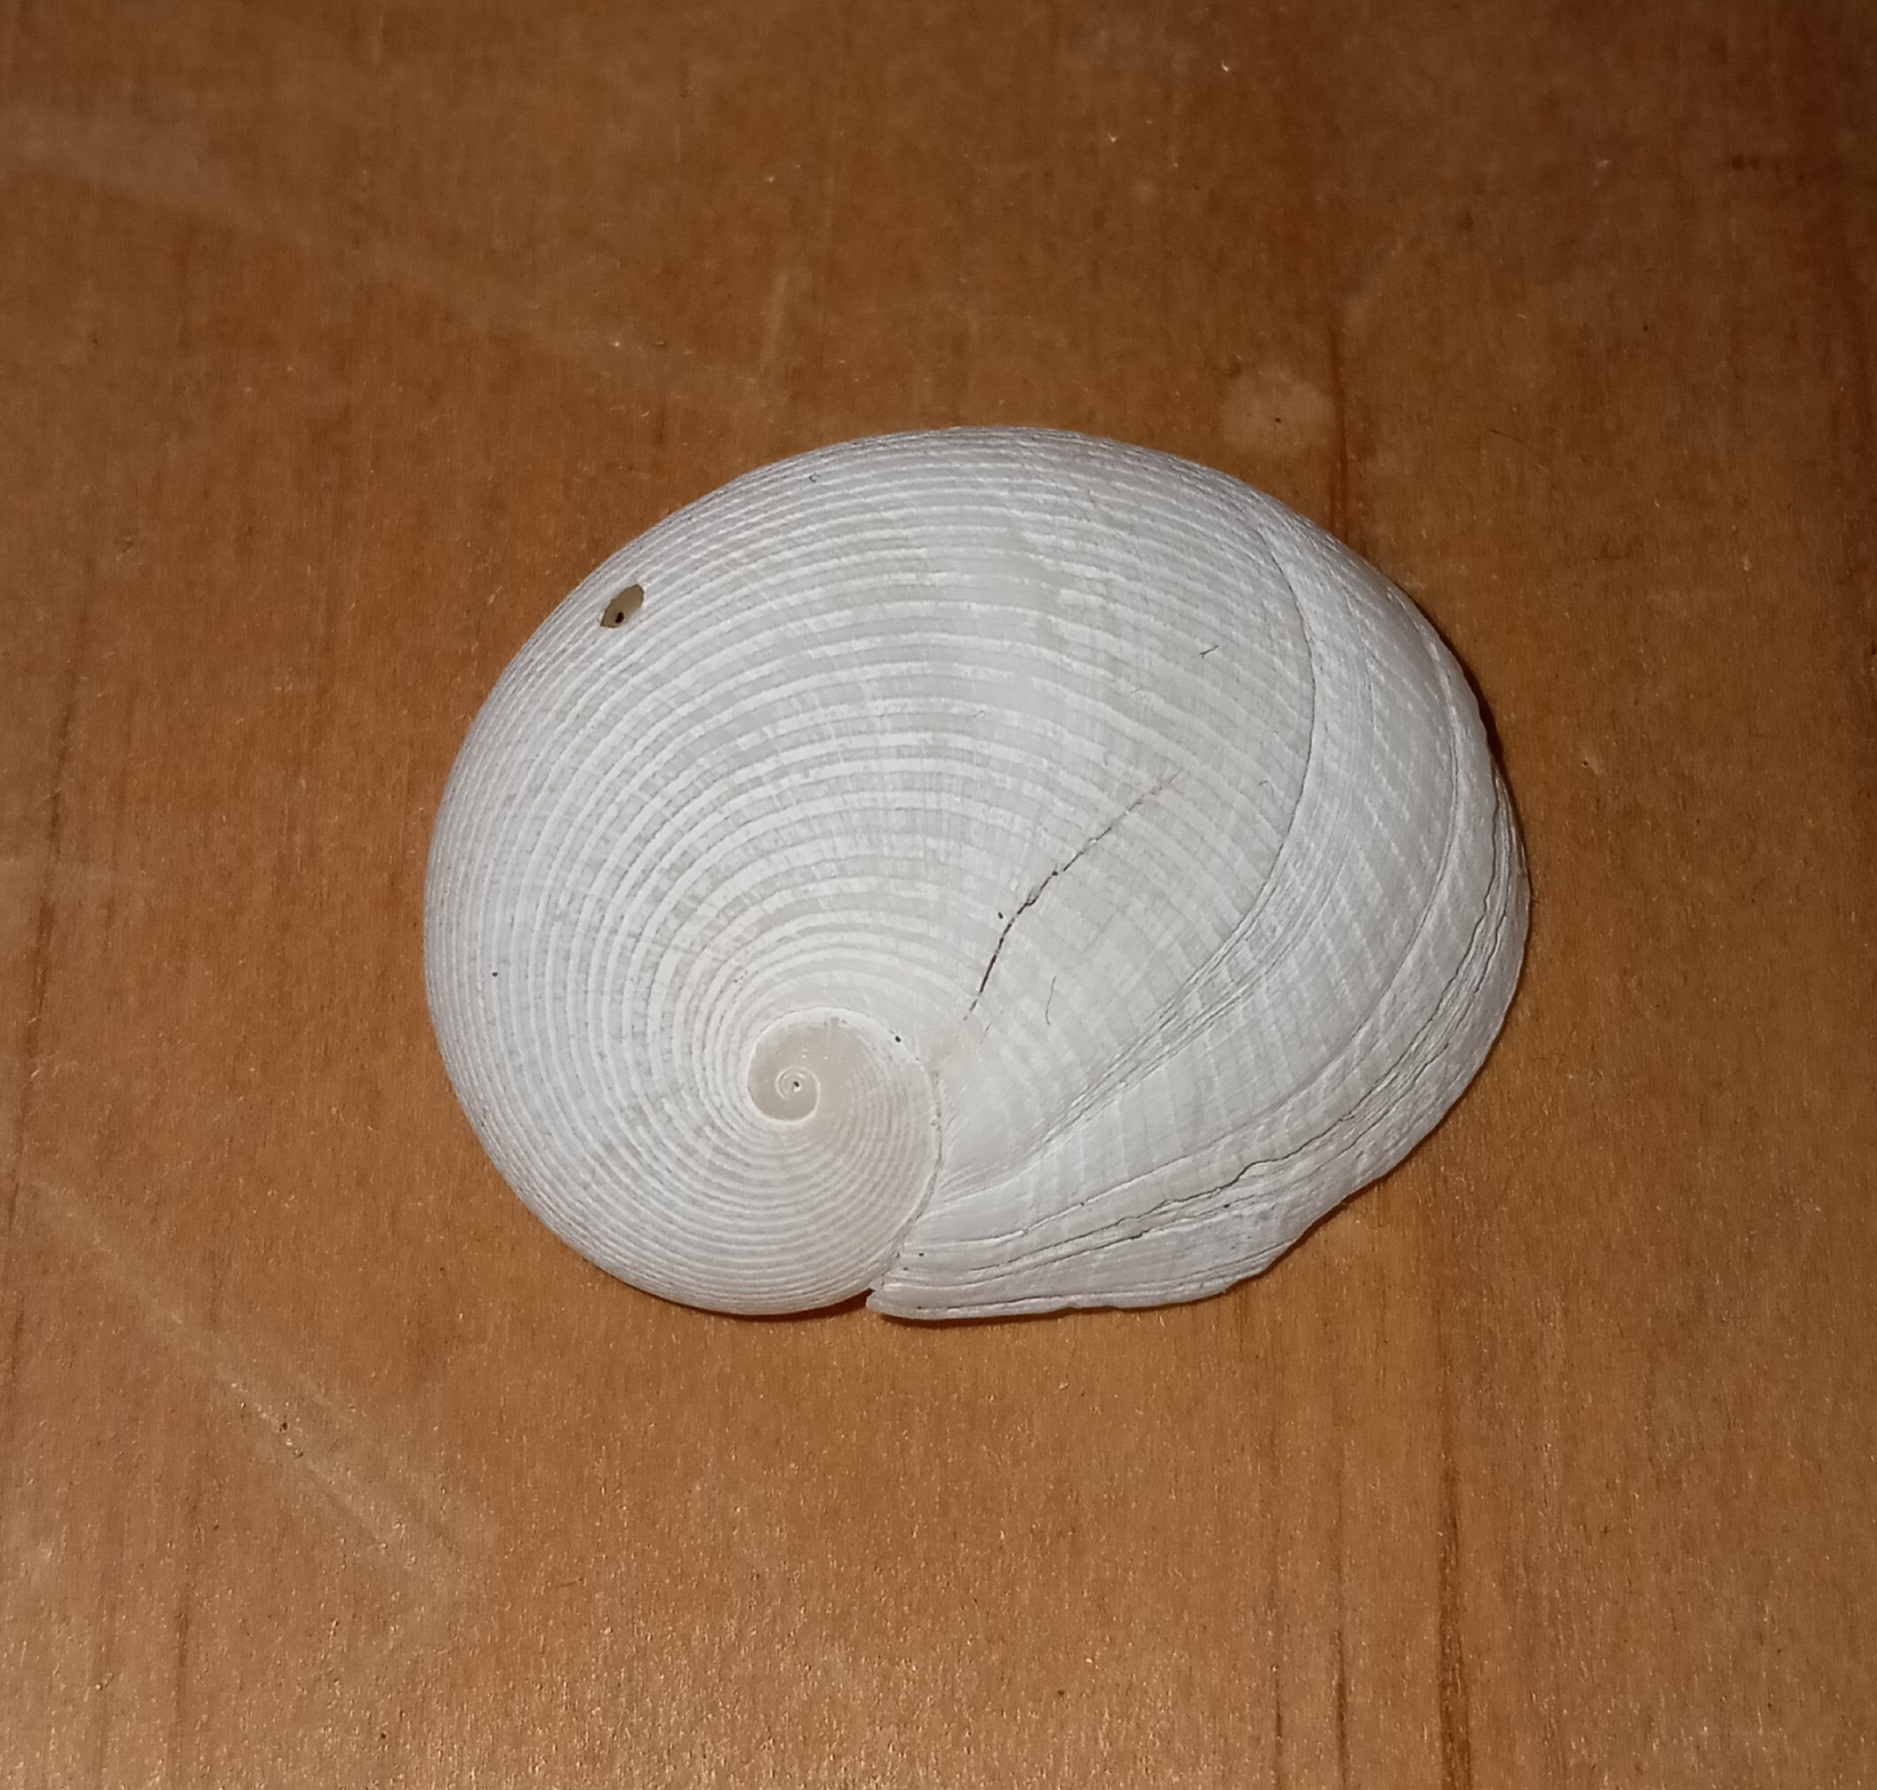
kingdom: Animalia
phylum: Mollusca
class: Gastropoda
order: Littorinimorpha
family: Naticidae
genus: Sinum
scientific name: Sinum perspectivum
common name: White baby ear
